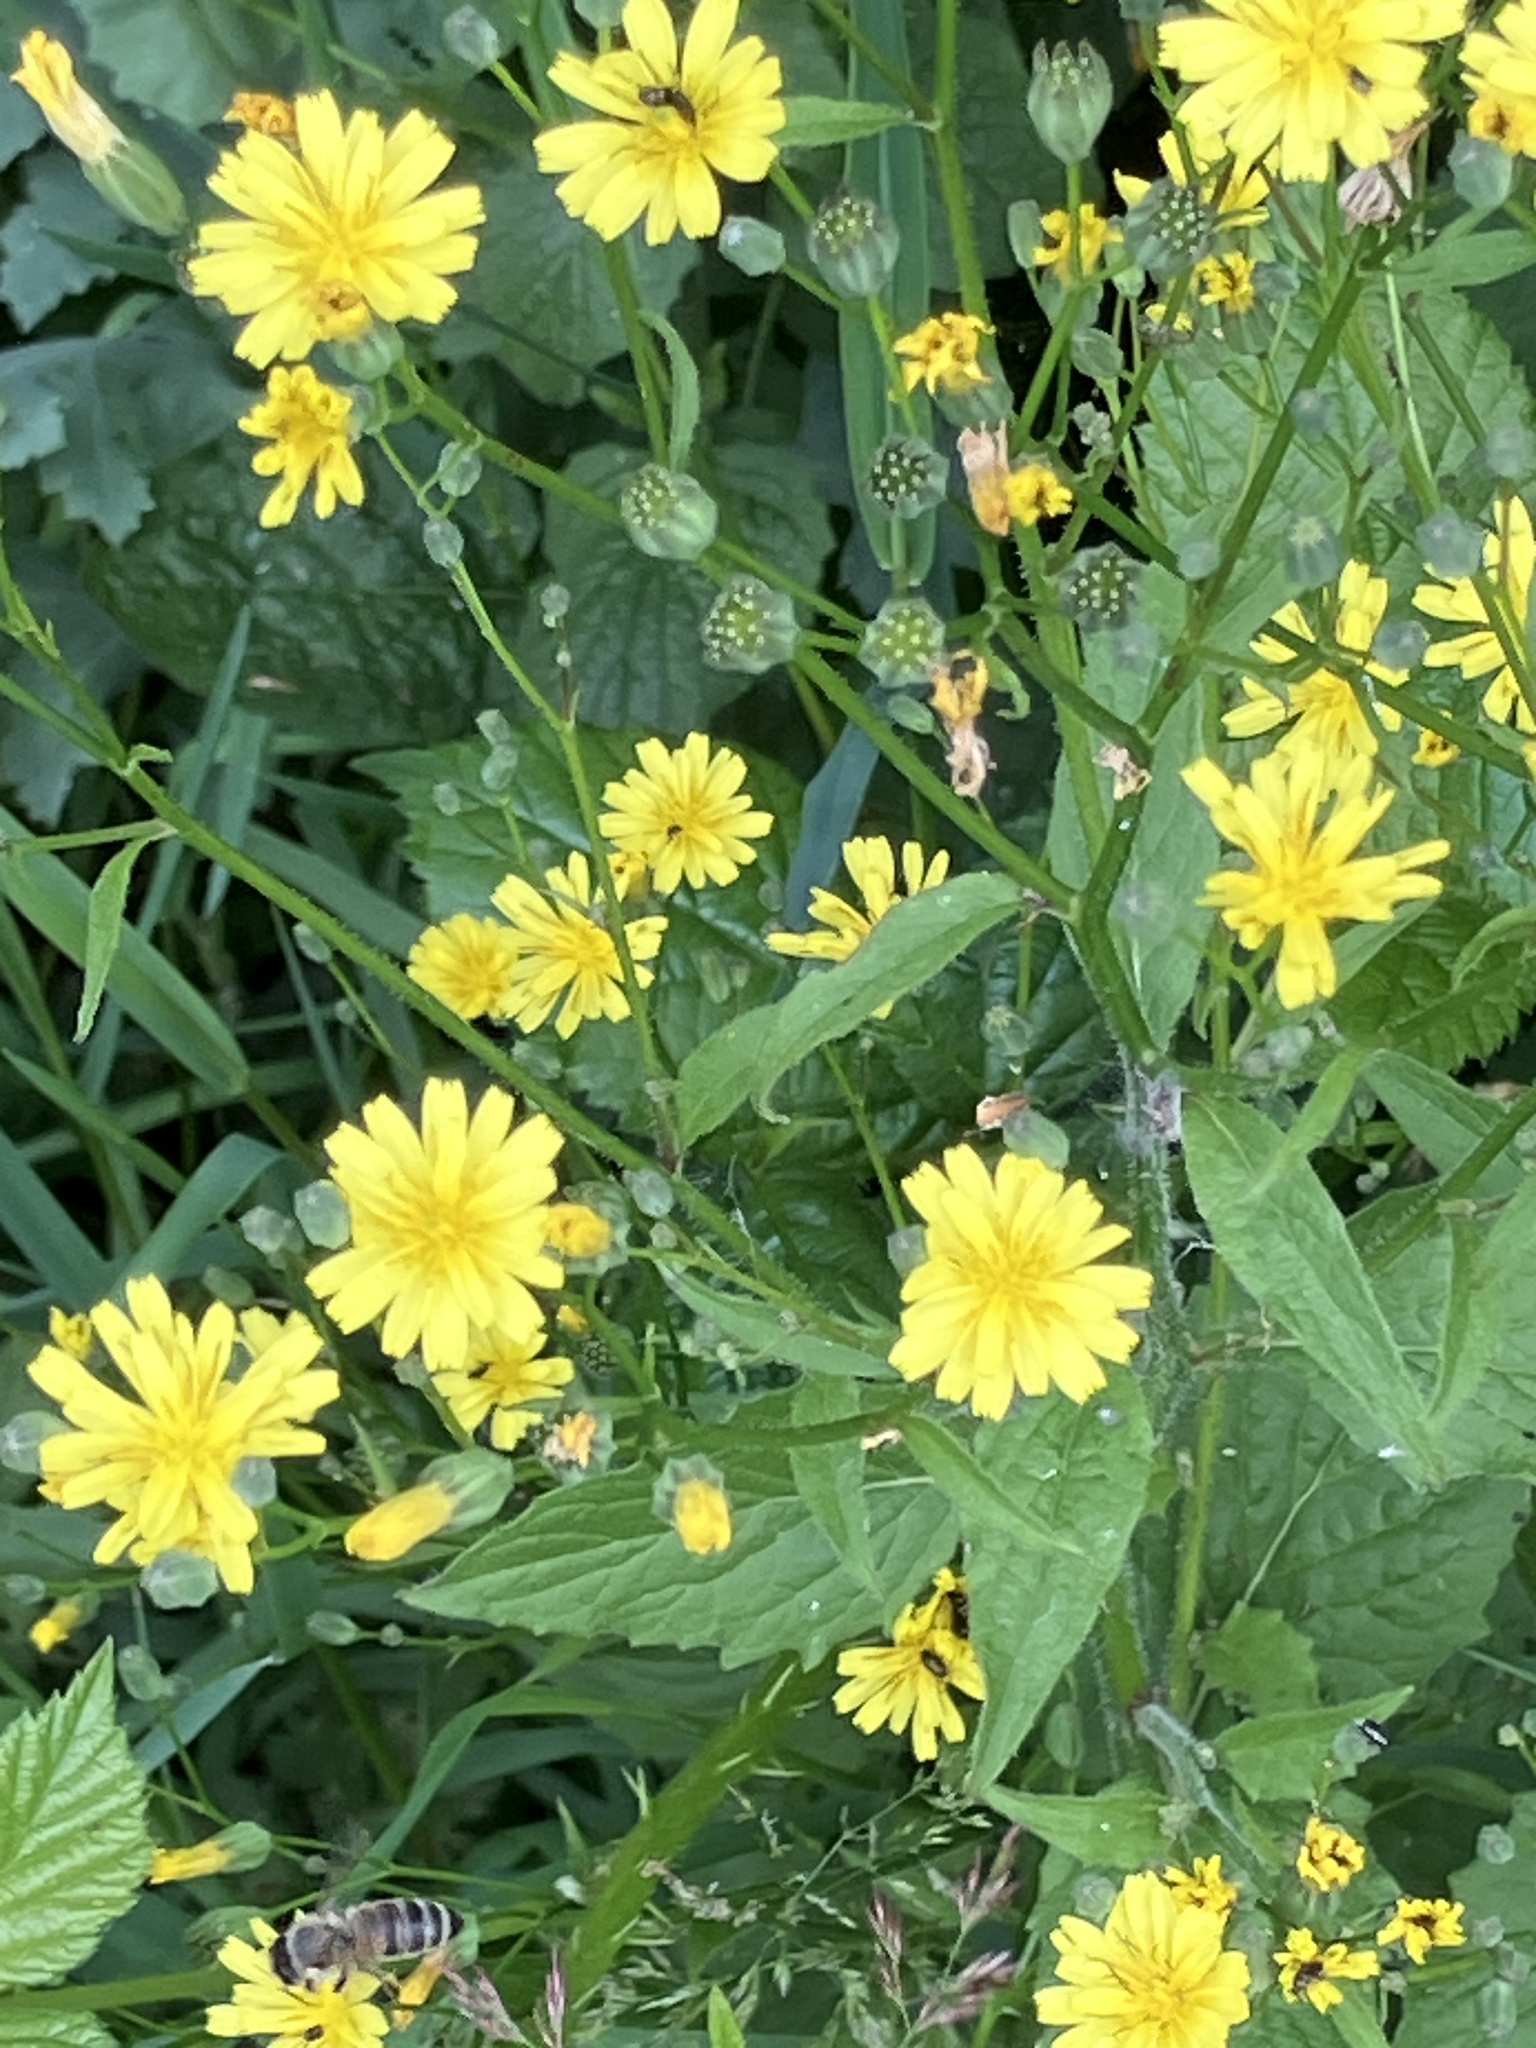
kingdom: Plantae
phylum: Tracheophyta
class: Magnoliopsida
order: Asterales
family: Asteraceae
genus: Lapsana
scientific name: Lapsana communis
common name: Nipplewort
